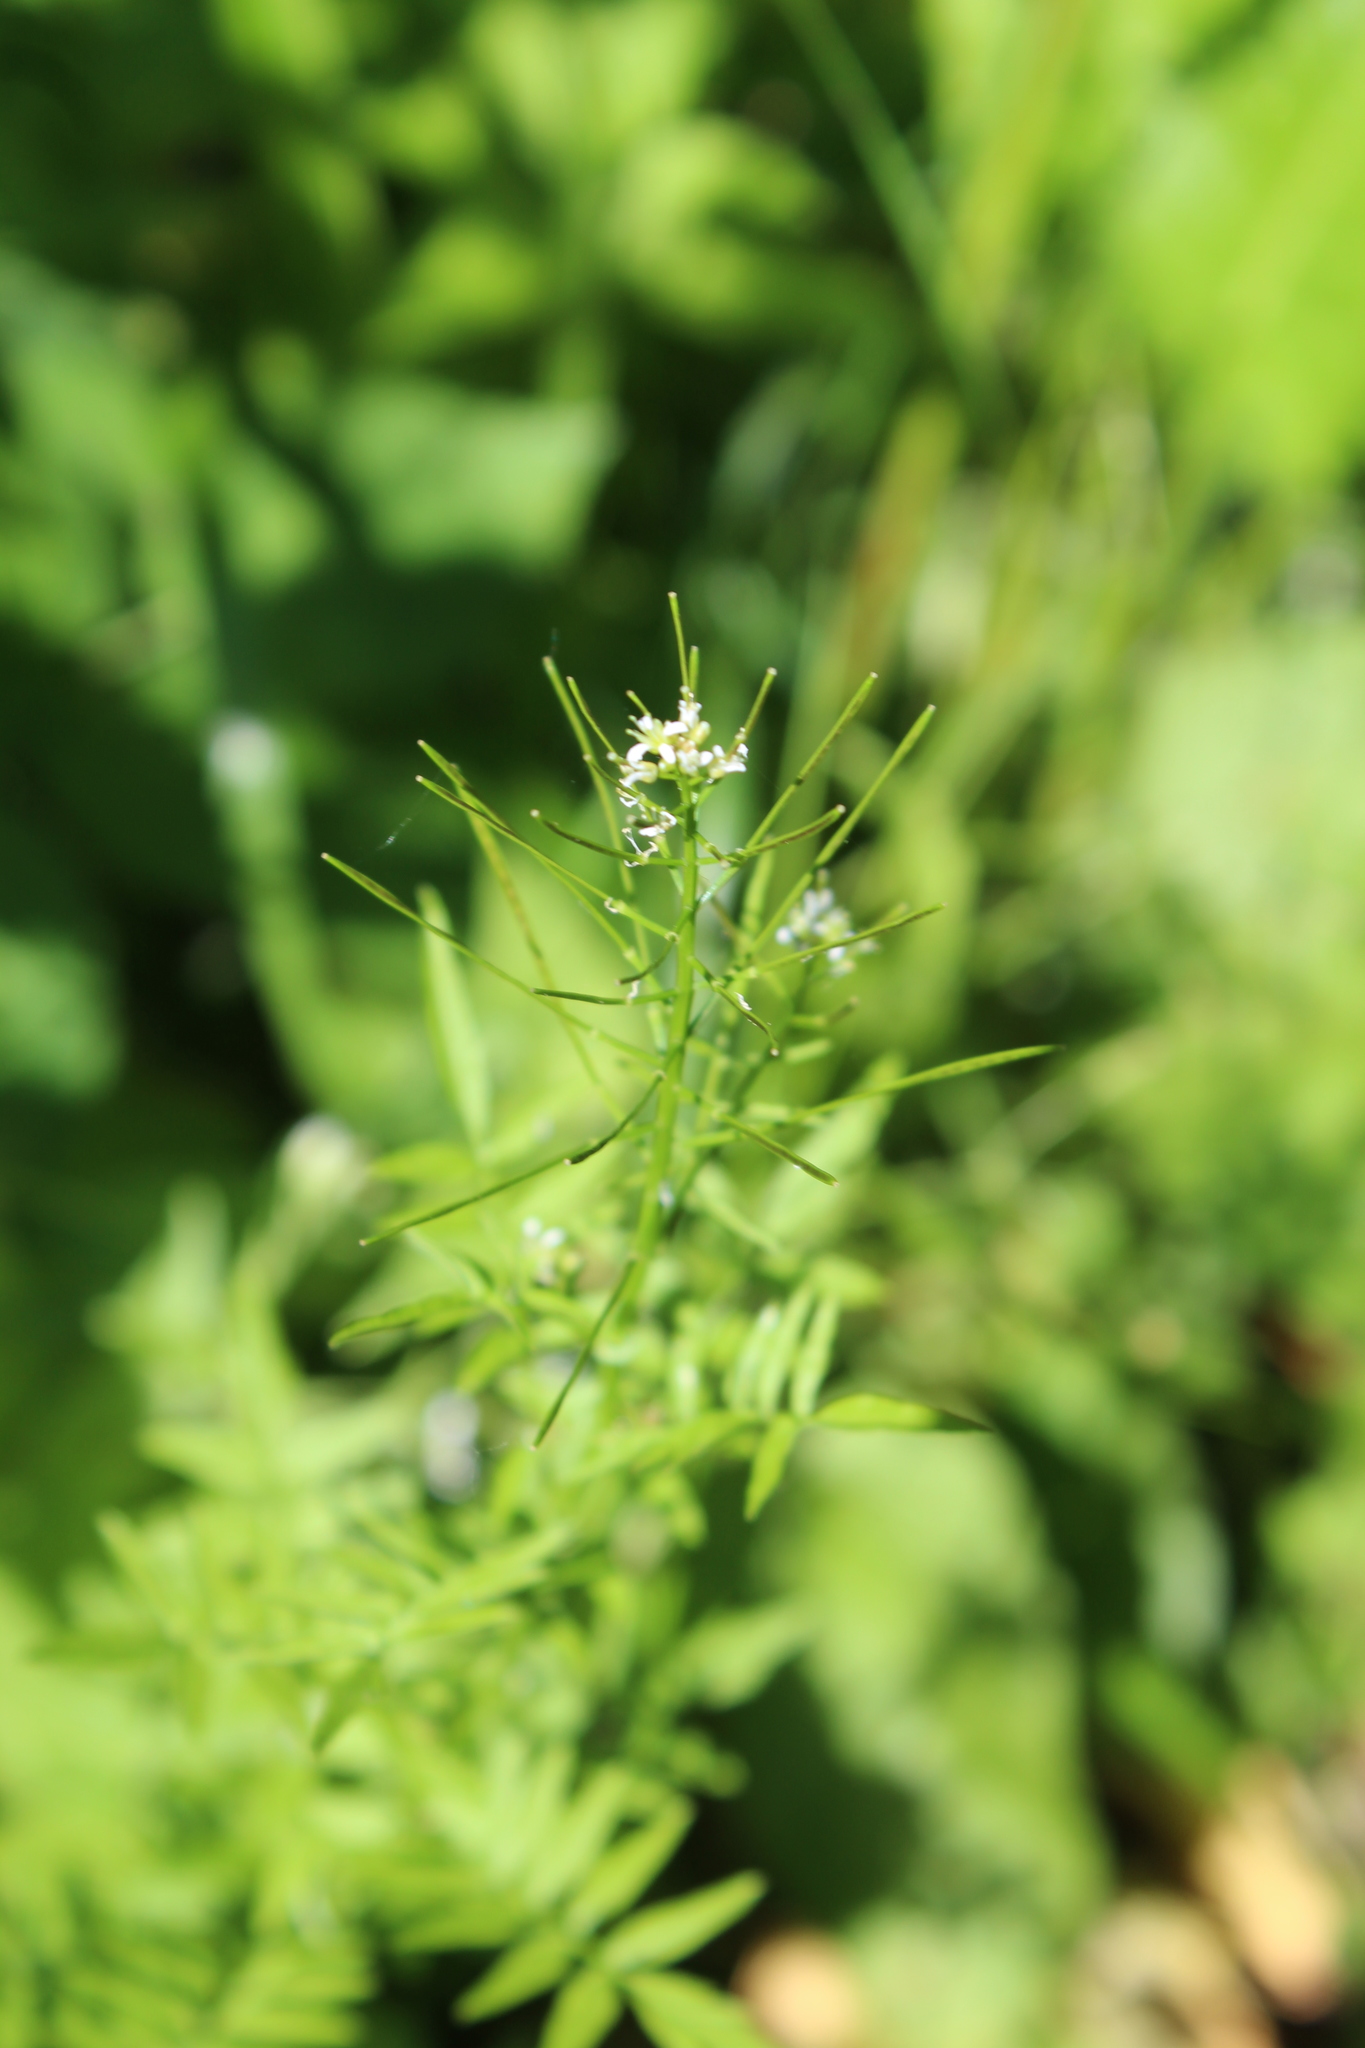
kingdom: Plantae
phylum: Tracheophyta
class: Magnoliopsida
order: Brassicales
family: Brassicaceae
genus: Cardamine
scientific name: Cardamine impatiens
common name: Narrow-leaved bitter-cress
